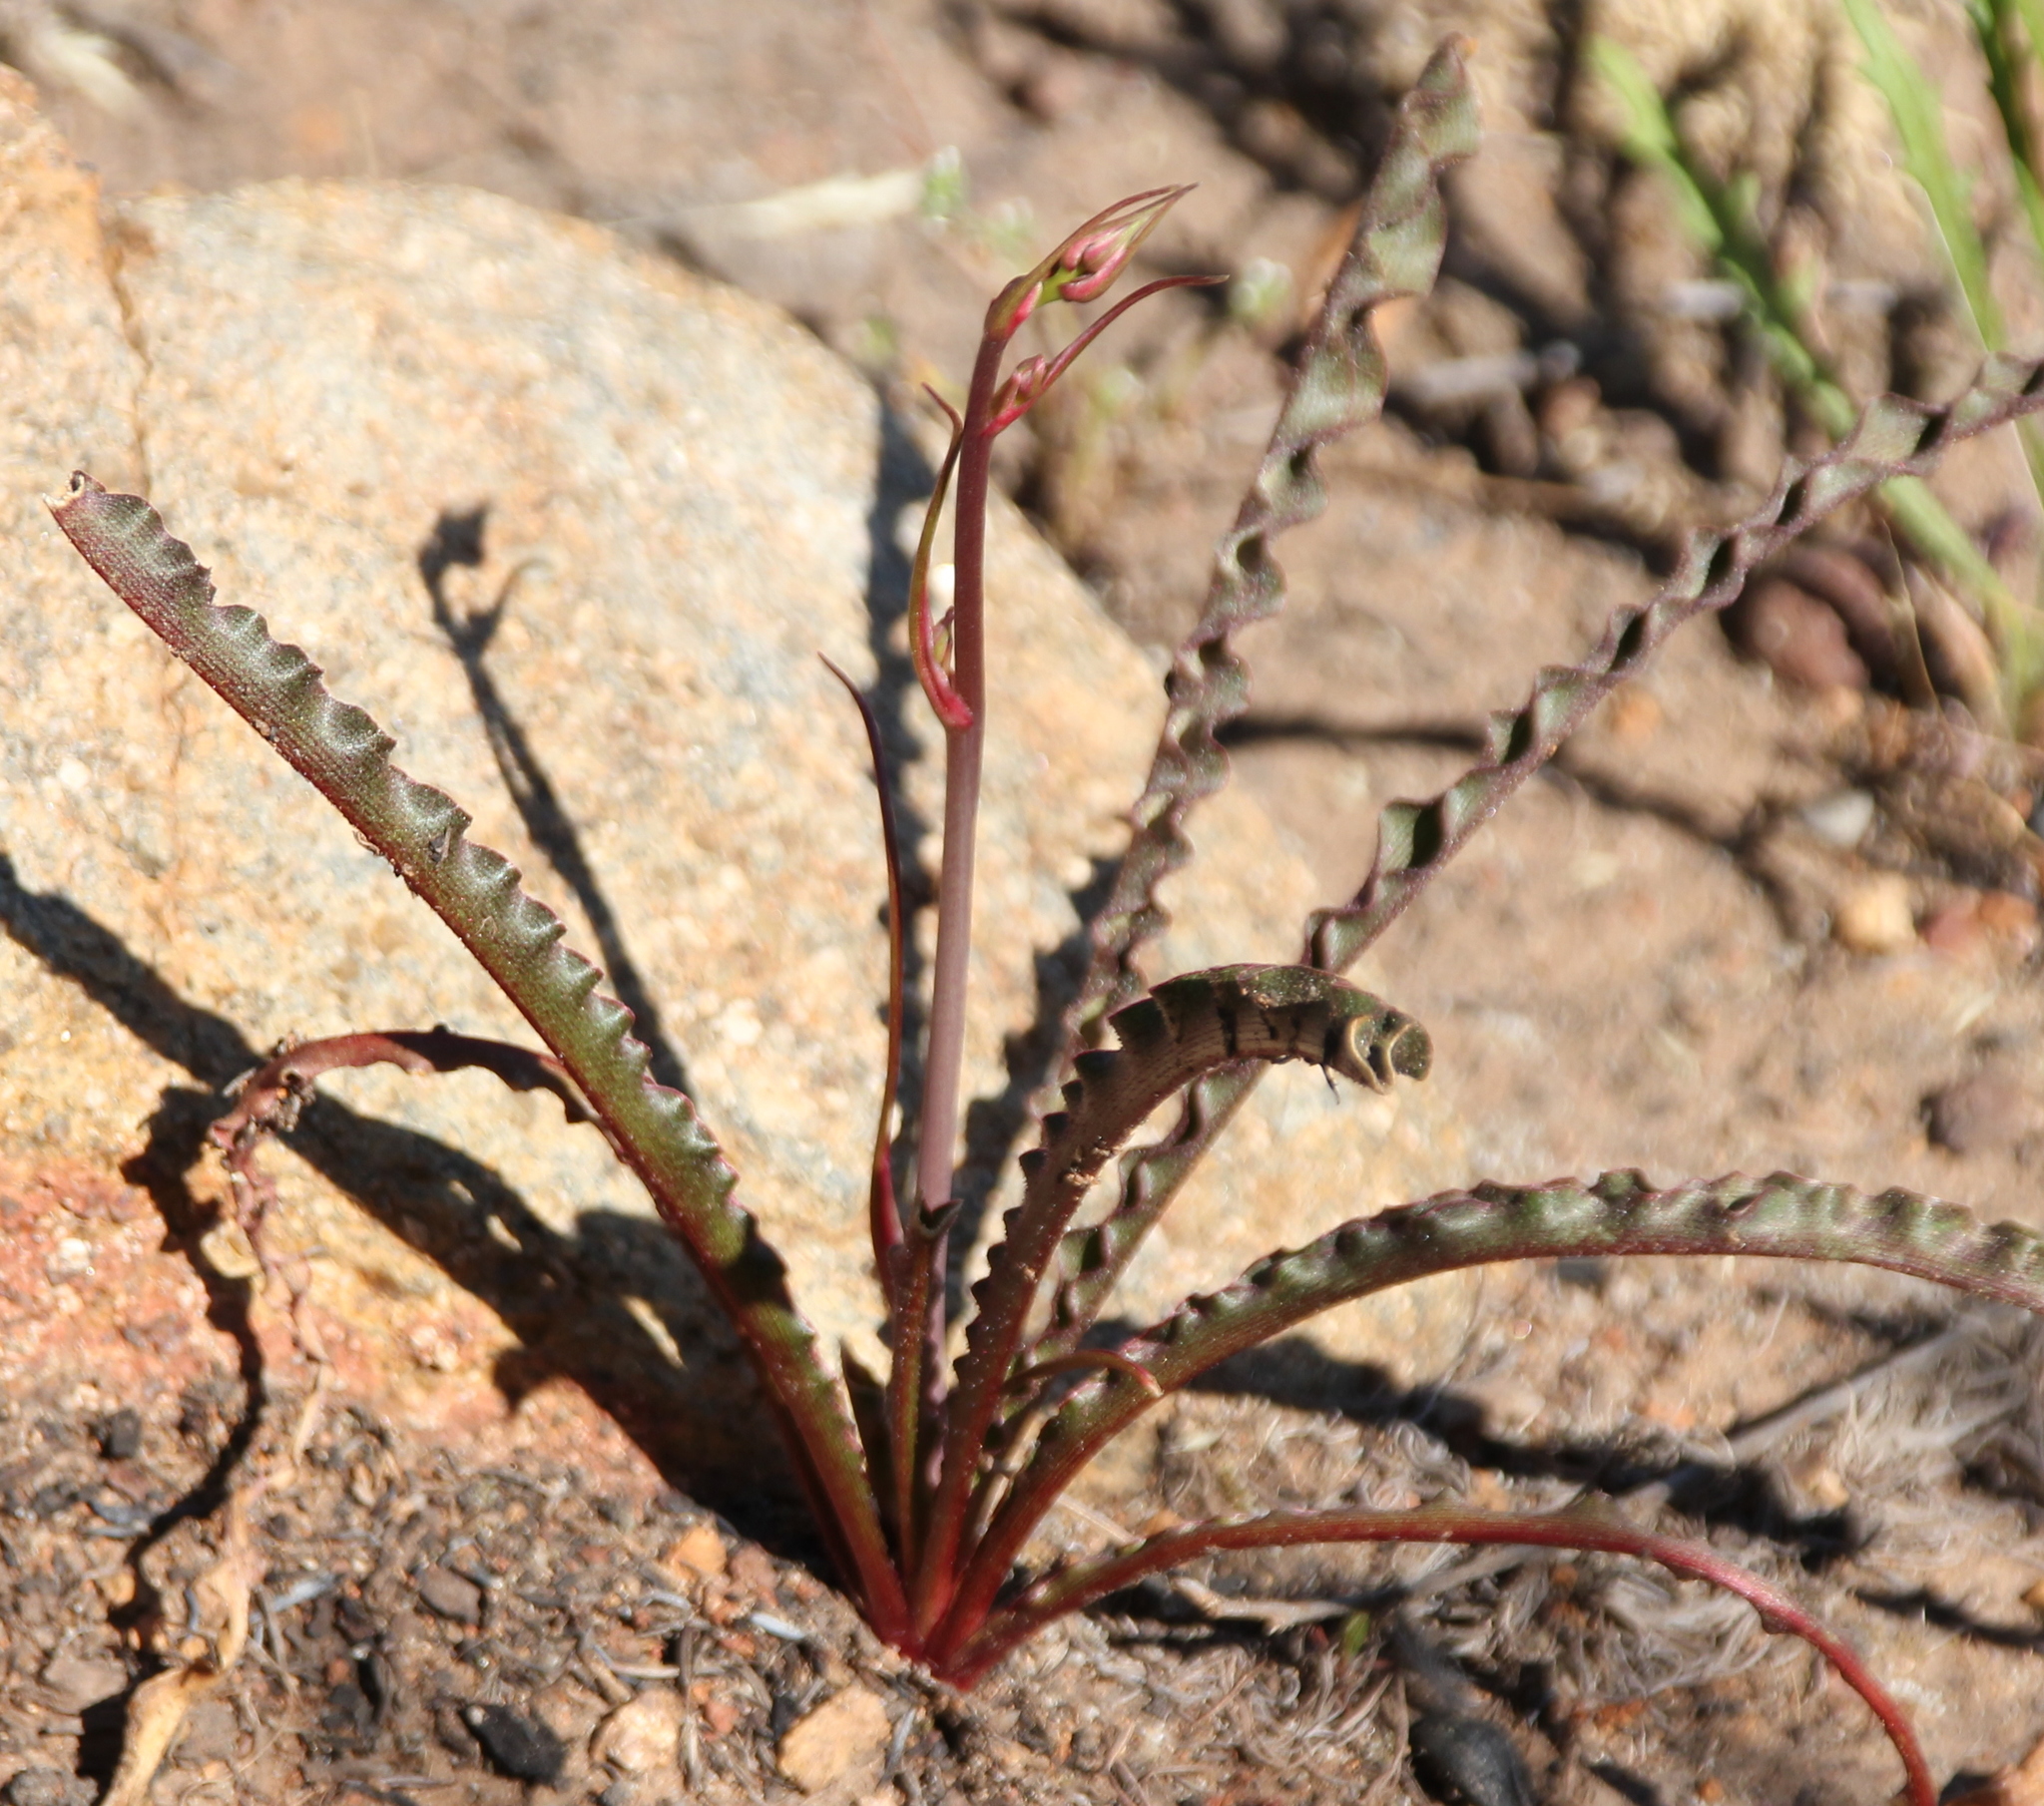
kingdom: Plantae
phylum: Tracheophyta
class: Liliopsida
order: Asparagales
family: Asparagaceae
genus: Hooveria
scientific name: Hooveria parviflora
